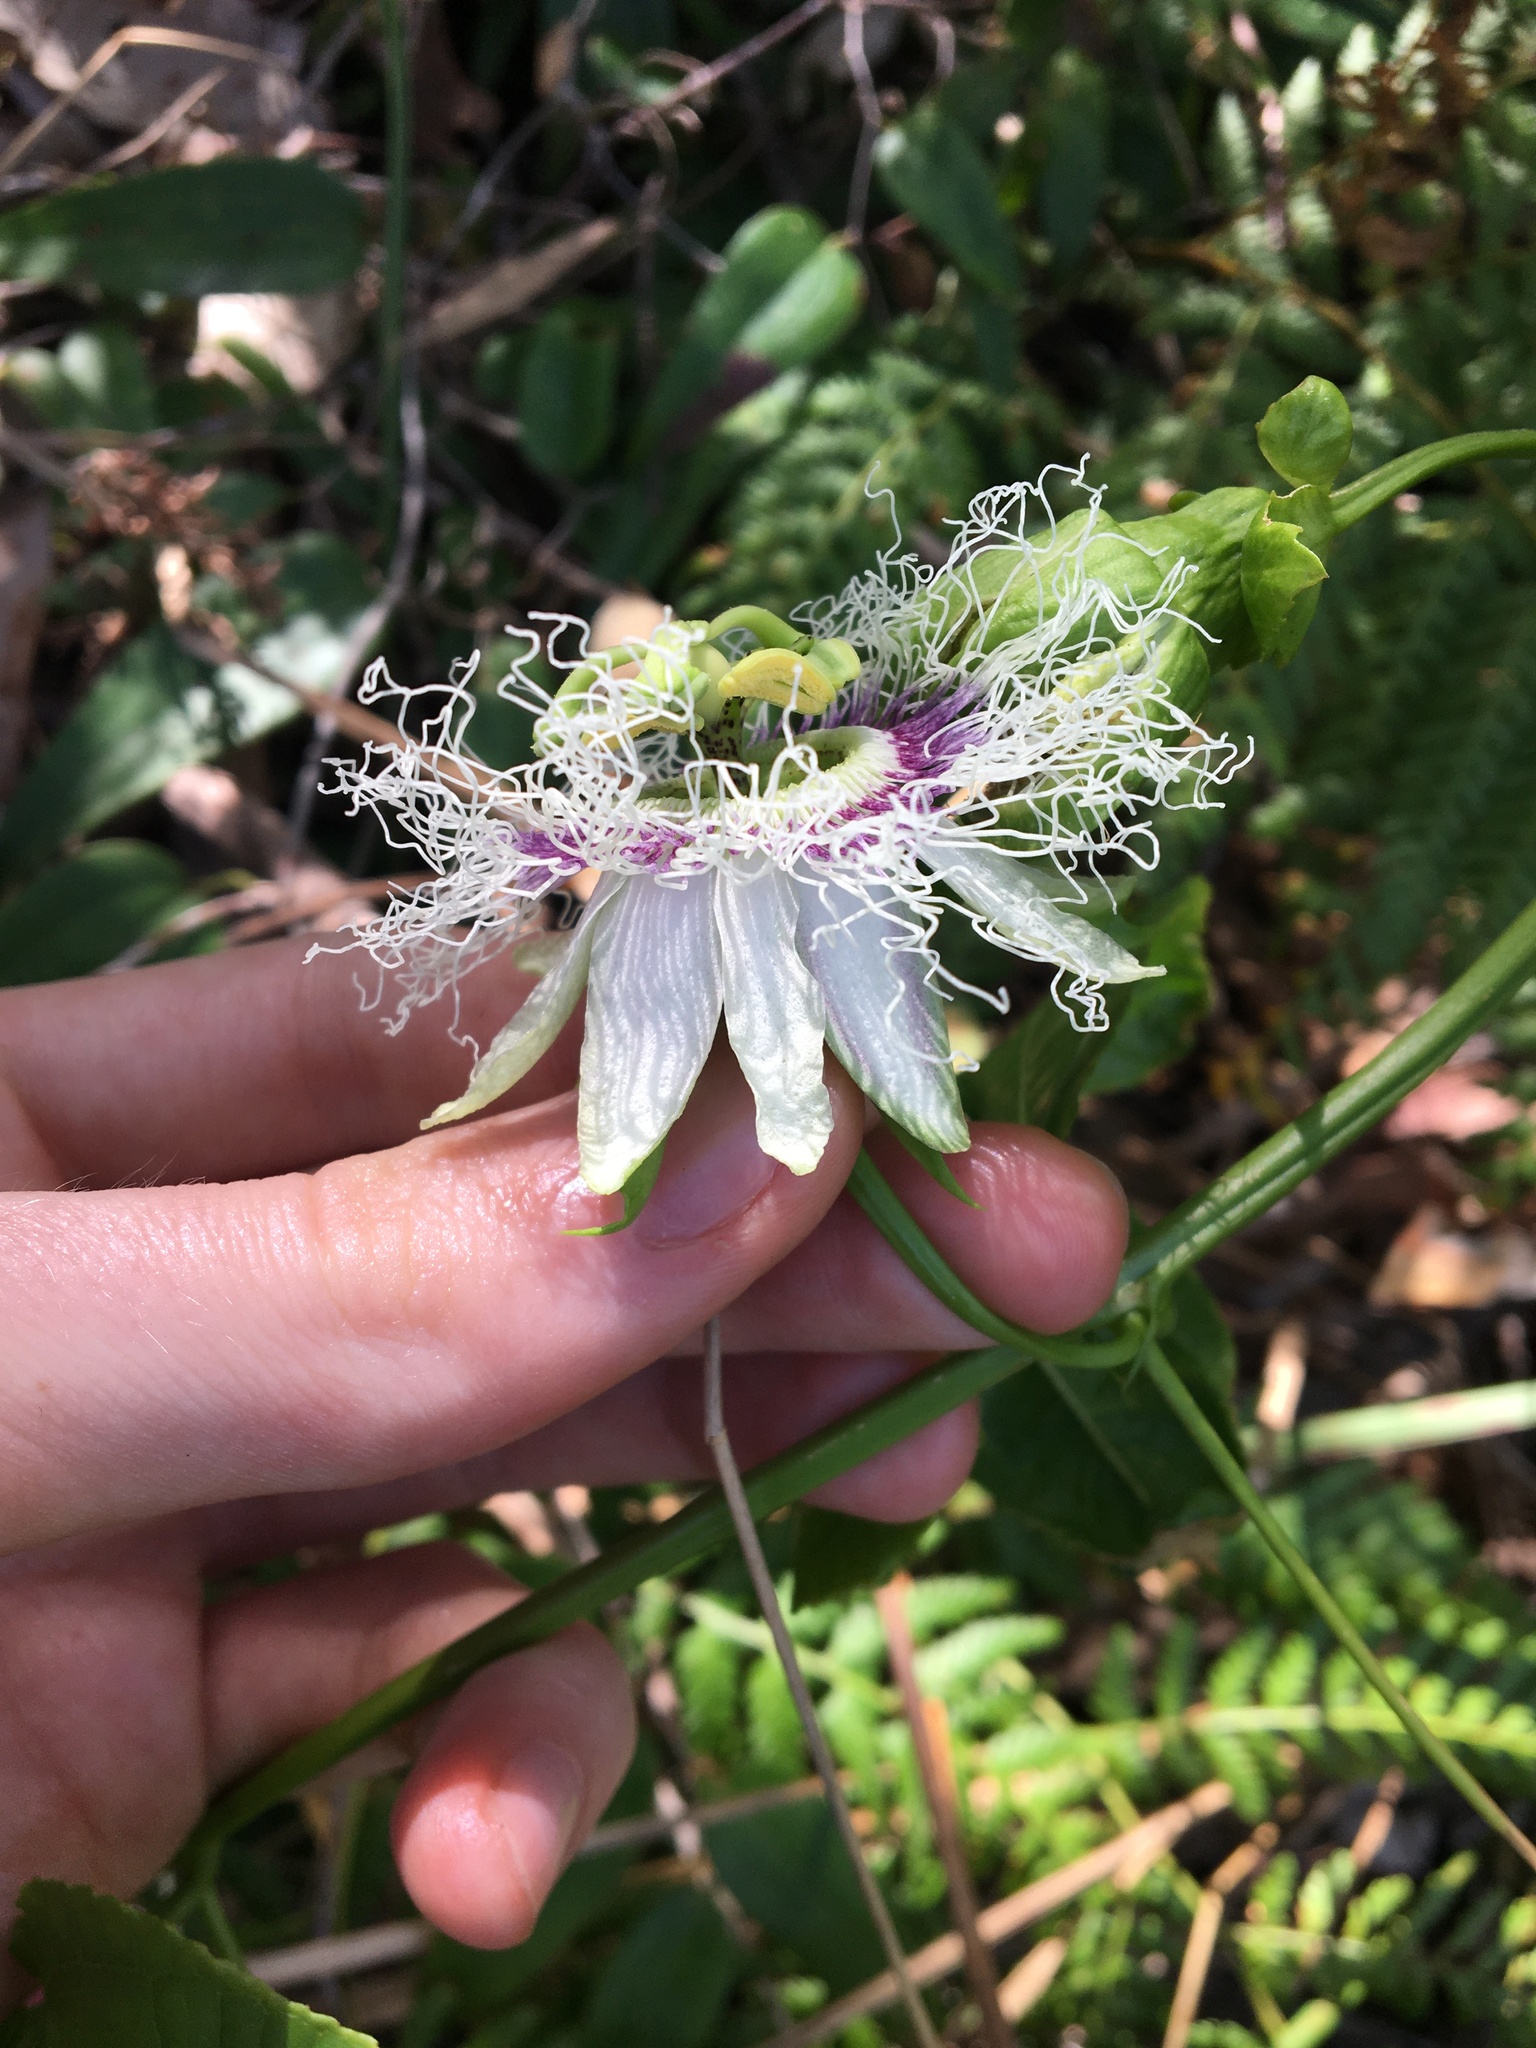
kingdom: Plantae
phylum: Tracheophyta
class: Magnoliopsida
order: Malpighiales
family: Passifloraceae
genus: Passiflora
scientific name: Passiflora edulis
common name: Purple granadilla
